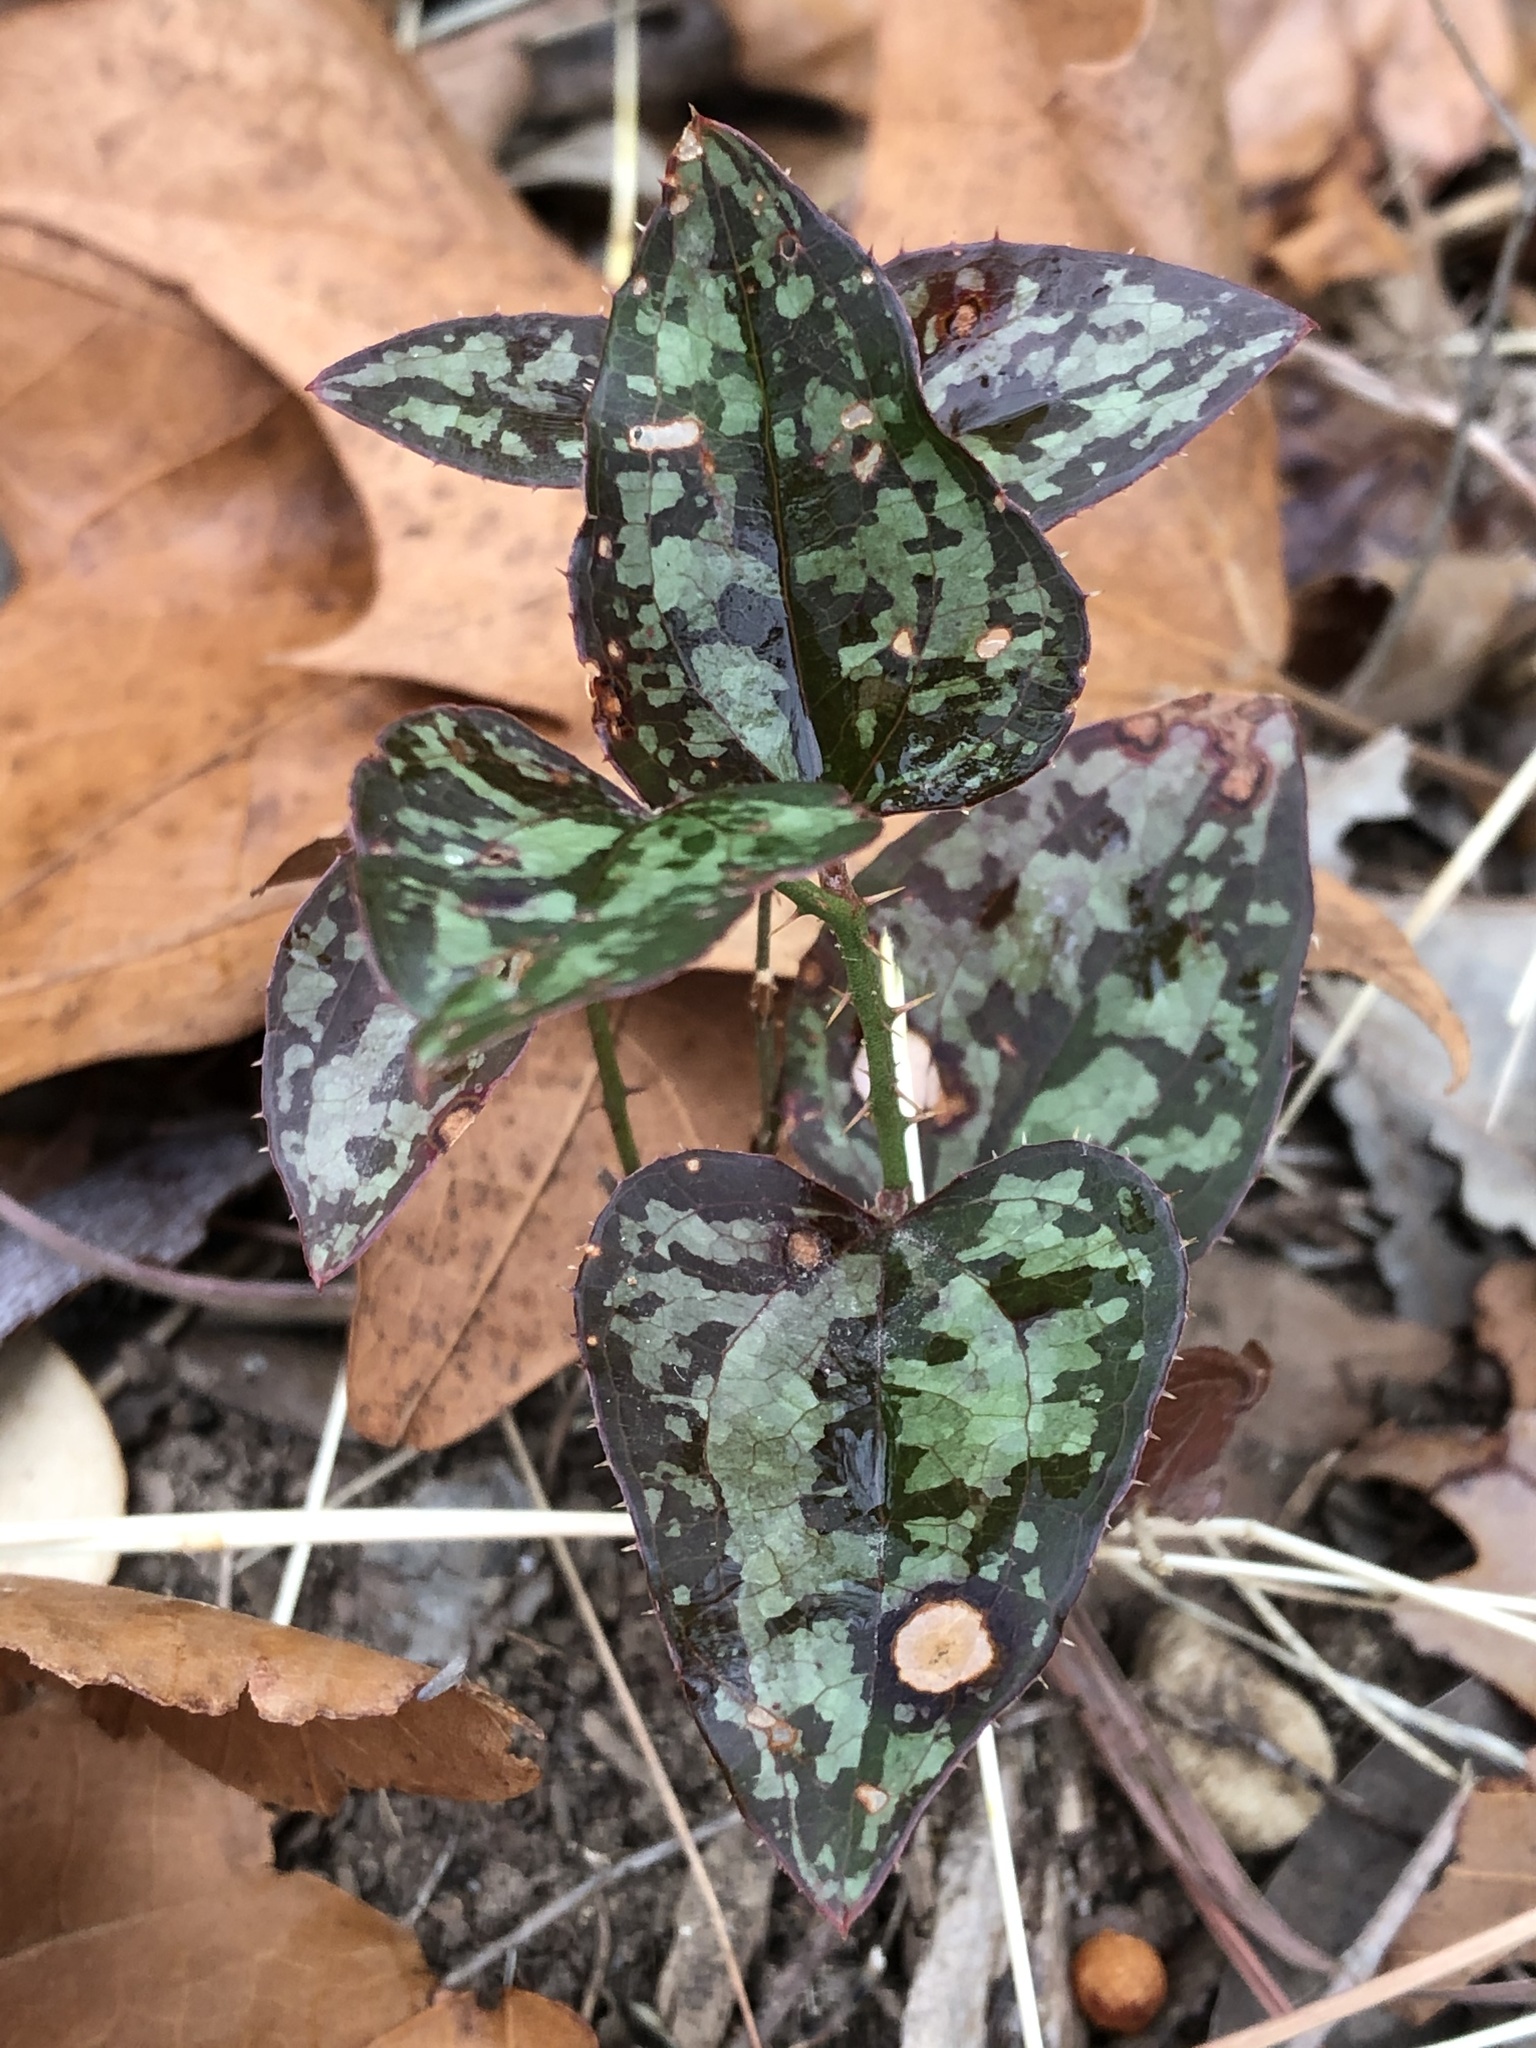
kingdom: Plantae
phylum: Tracheophyta
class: Liliopsida
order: Liliales
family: Smilacaceae
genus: Smilax
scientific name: Smilax bona-nox
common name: Catbrier
